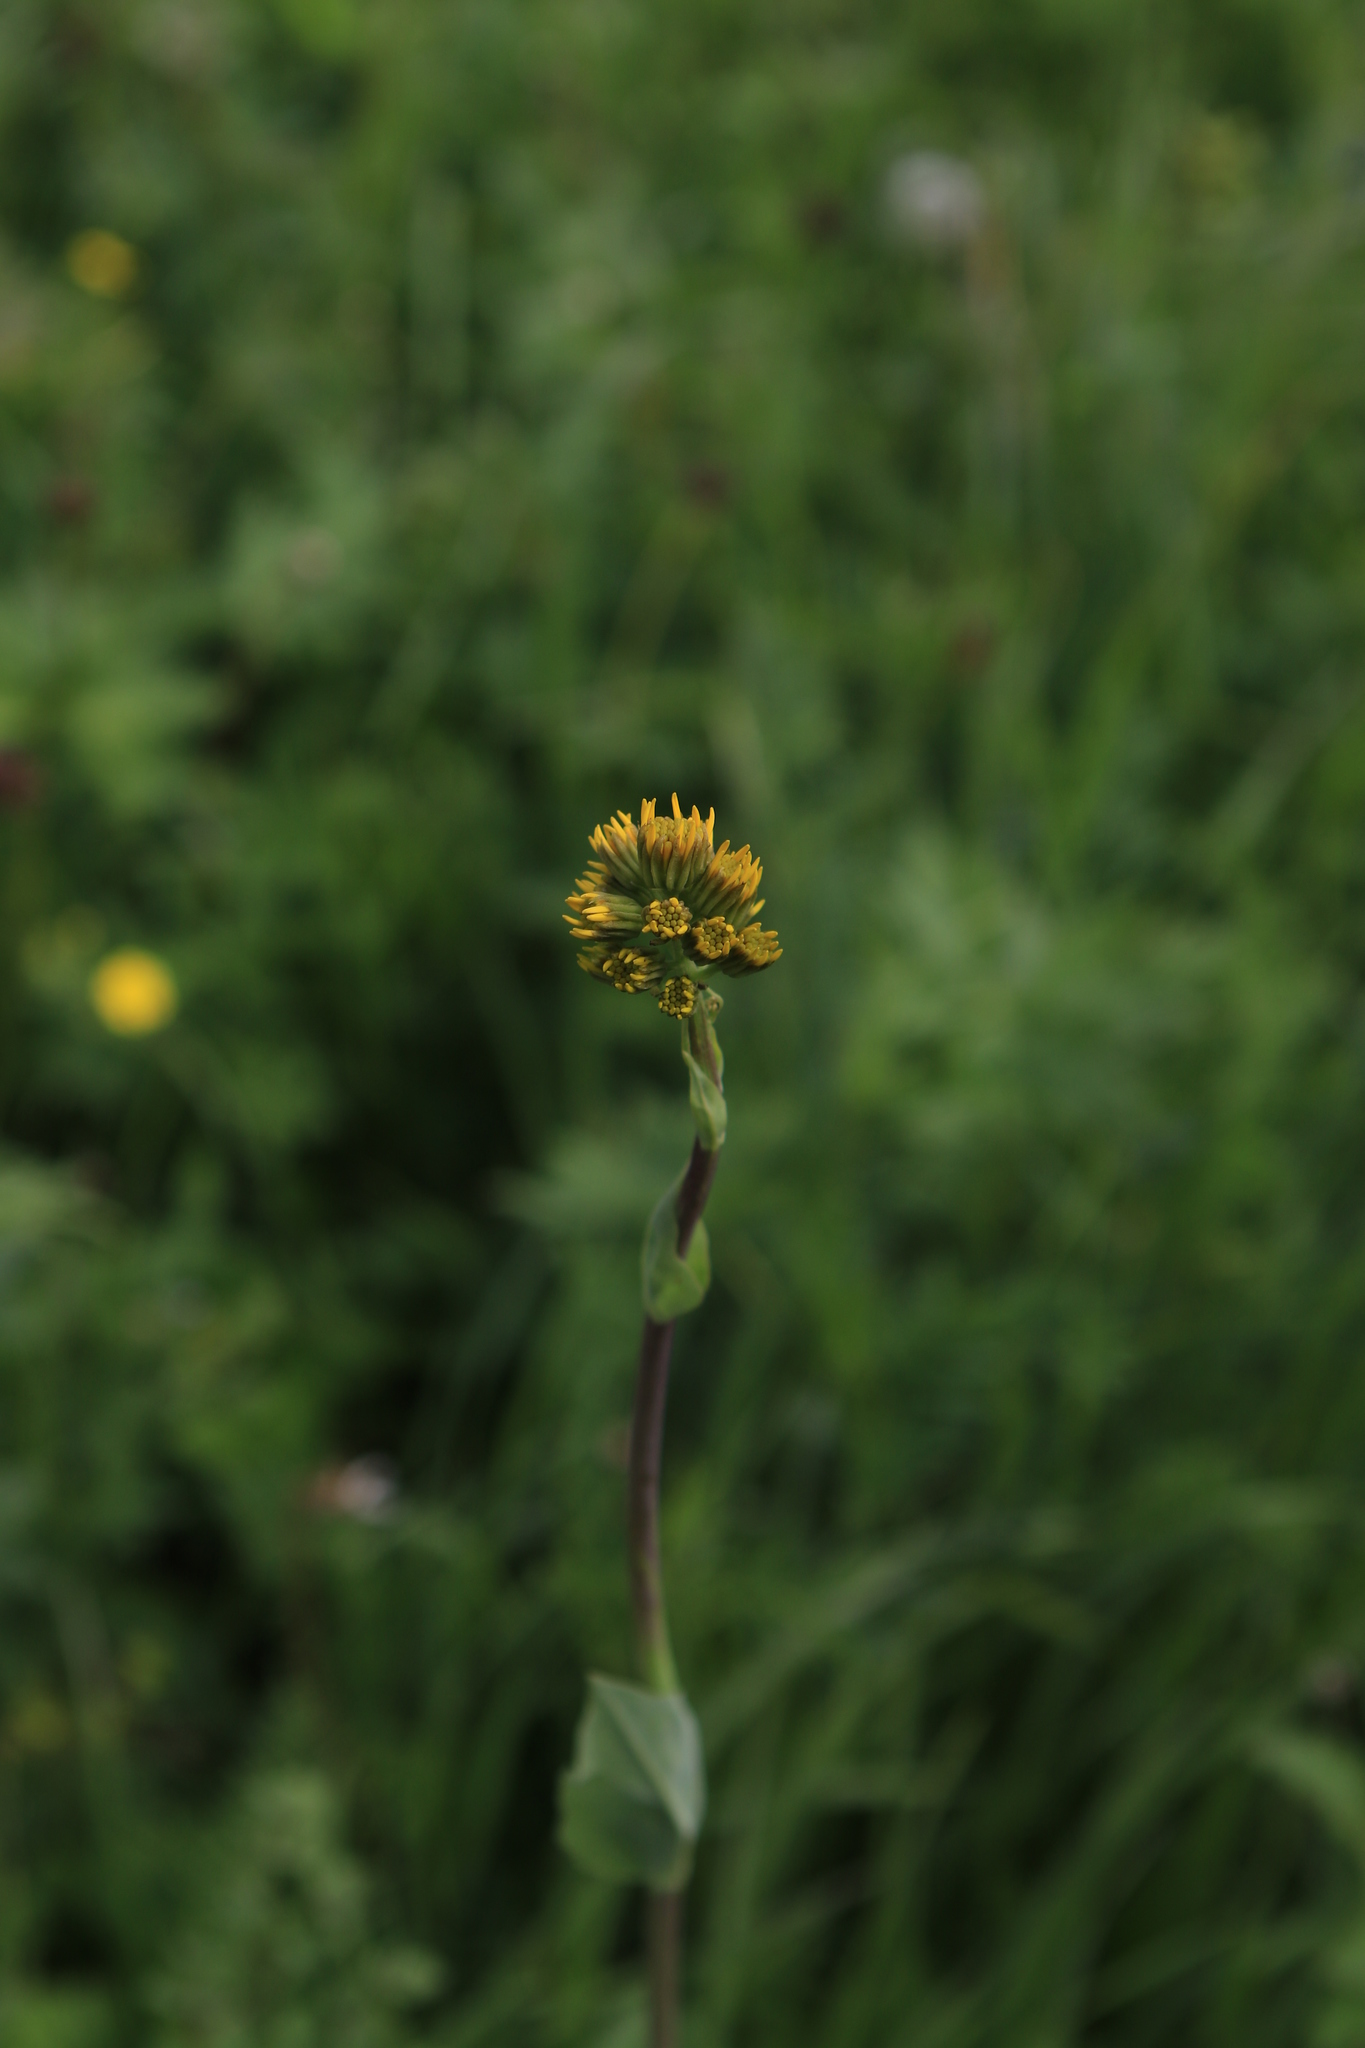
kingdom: Plantae
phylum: Tracheophyta
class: Magnoliopsida
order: Asterales
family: Asteraceae
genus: Ligularia
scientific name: Ligularia glauca
